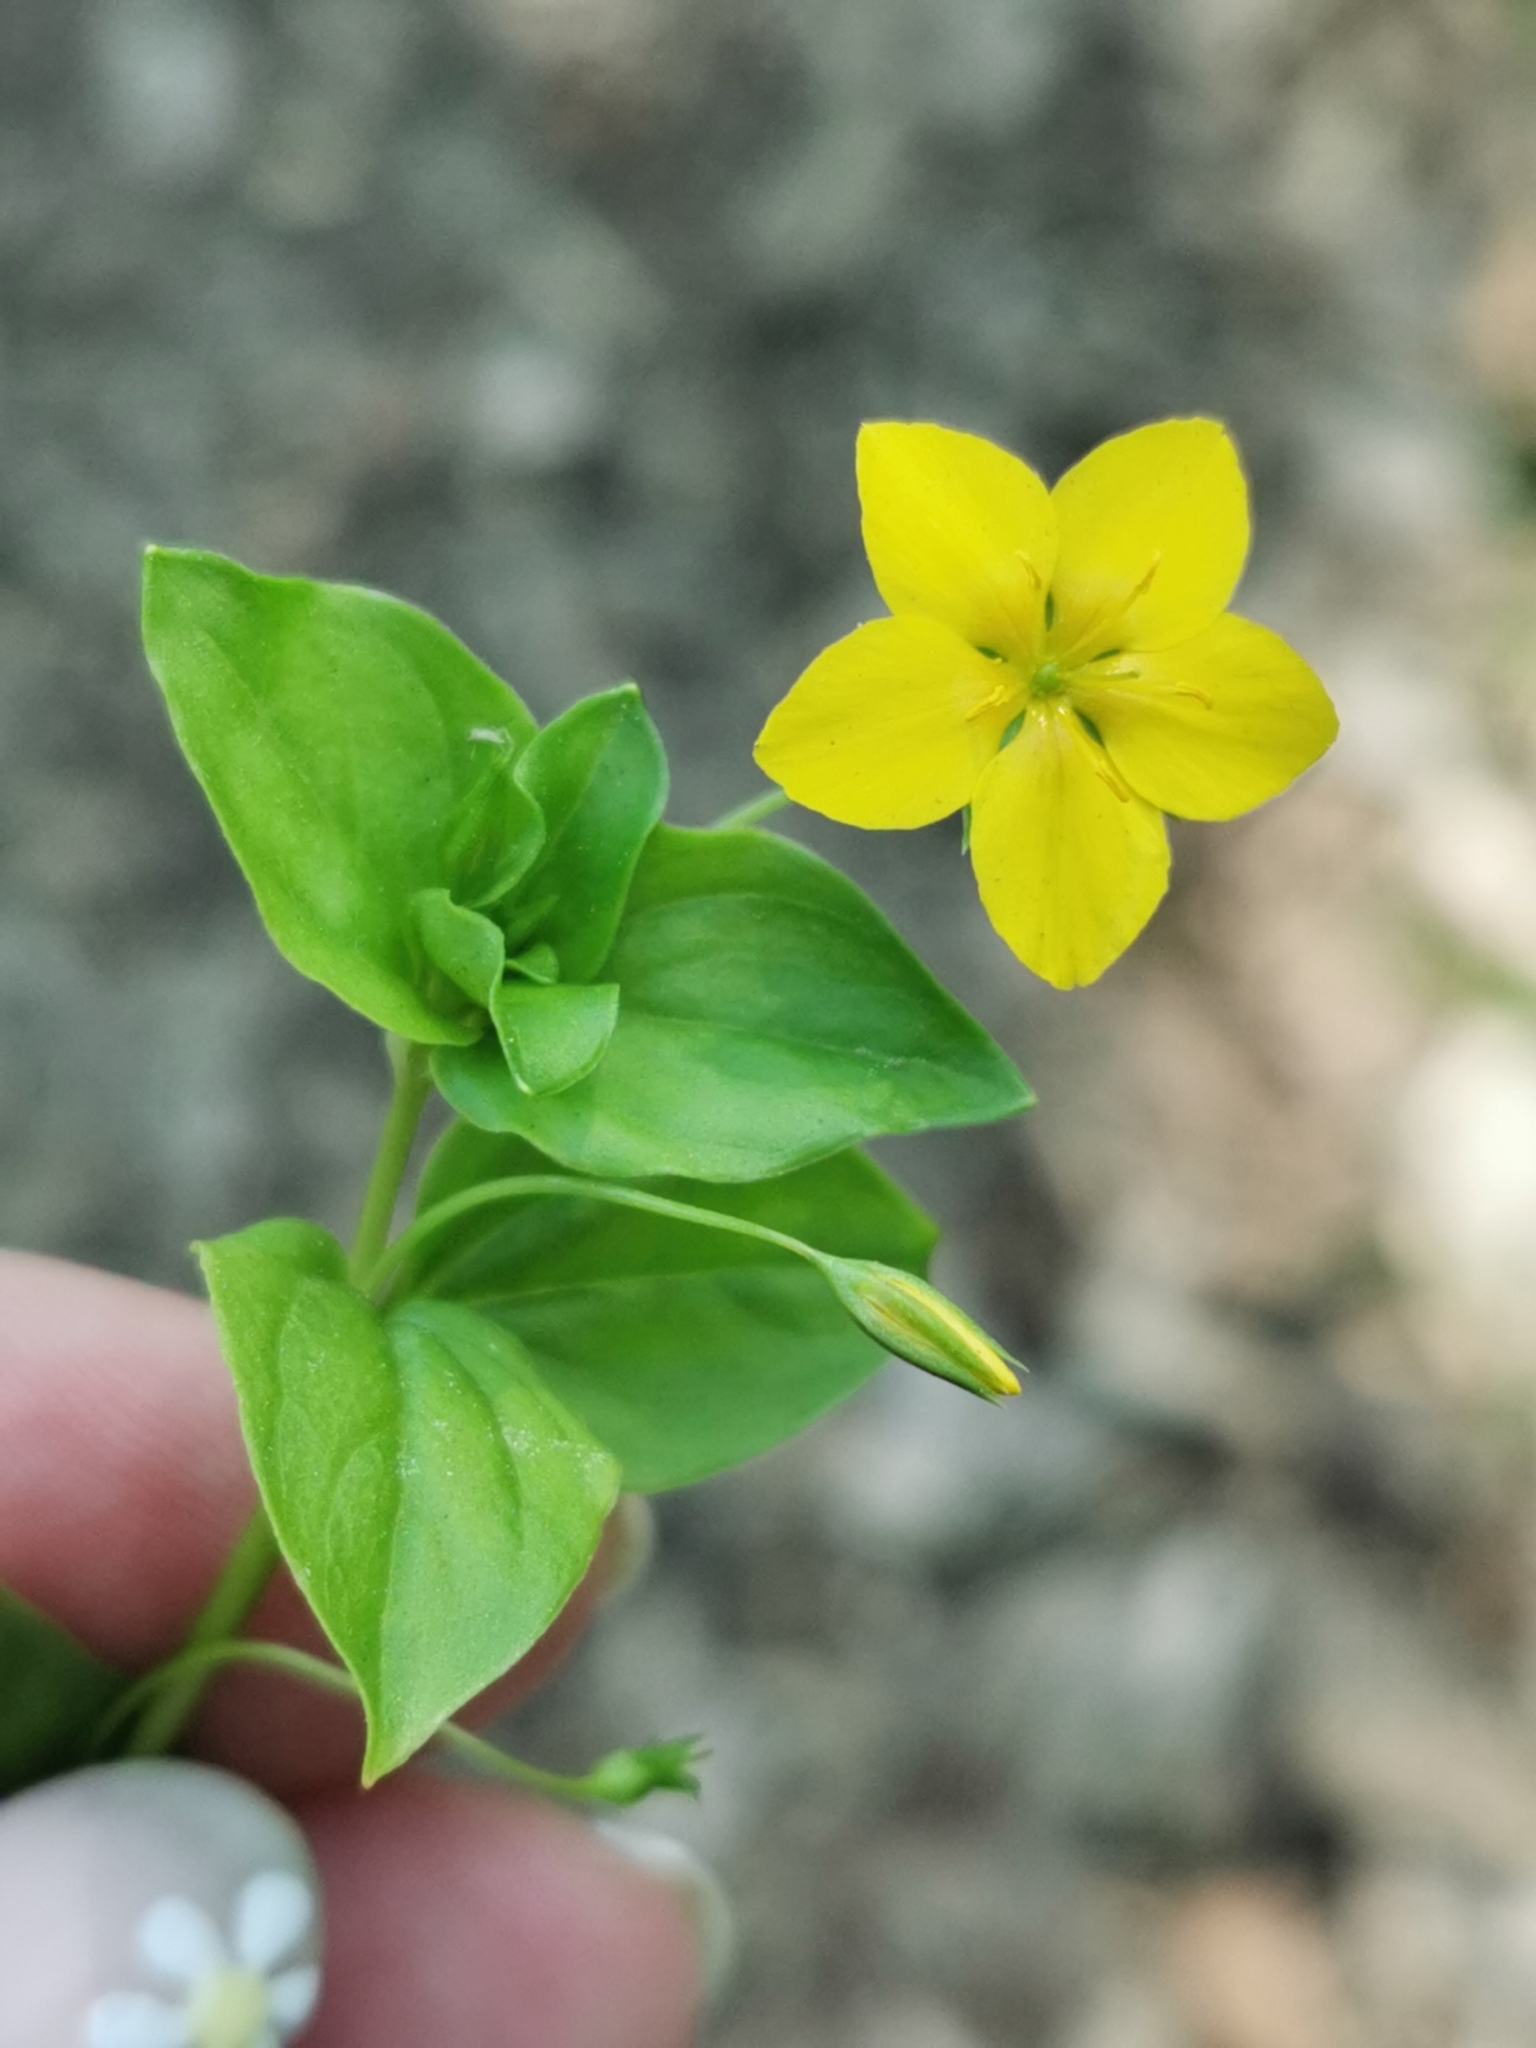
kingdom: Plantae
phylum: Tracheophyta
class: Magnoliopsida
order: Ericales
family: Primulaceae
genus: Lysimachia
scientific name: Lysimachia nemorum
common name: Yellow pimpernel
